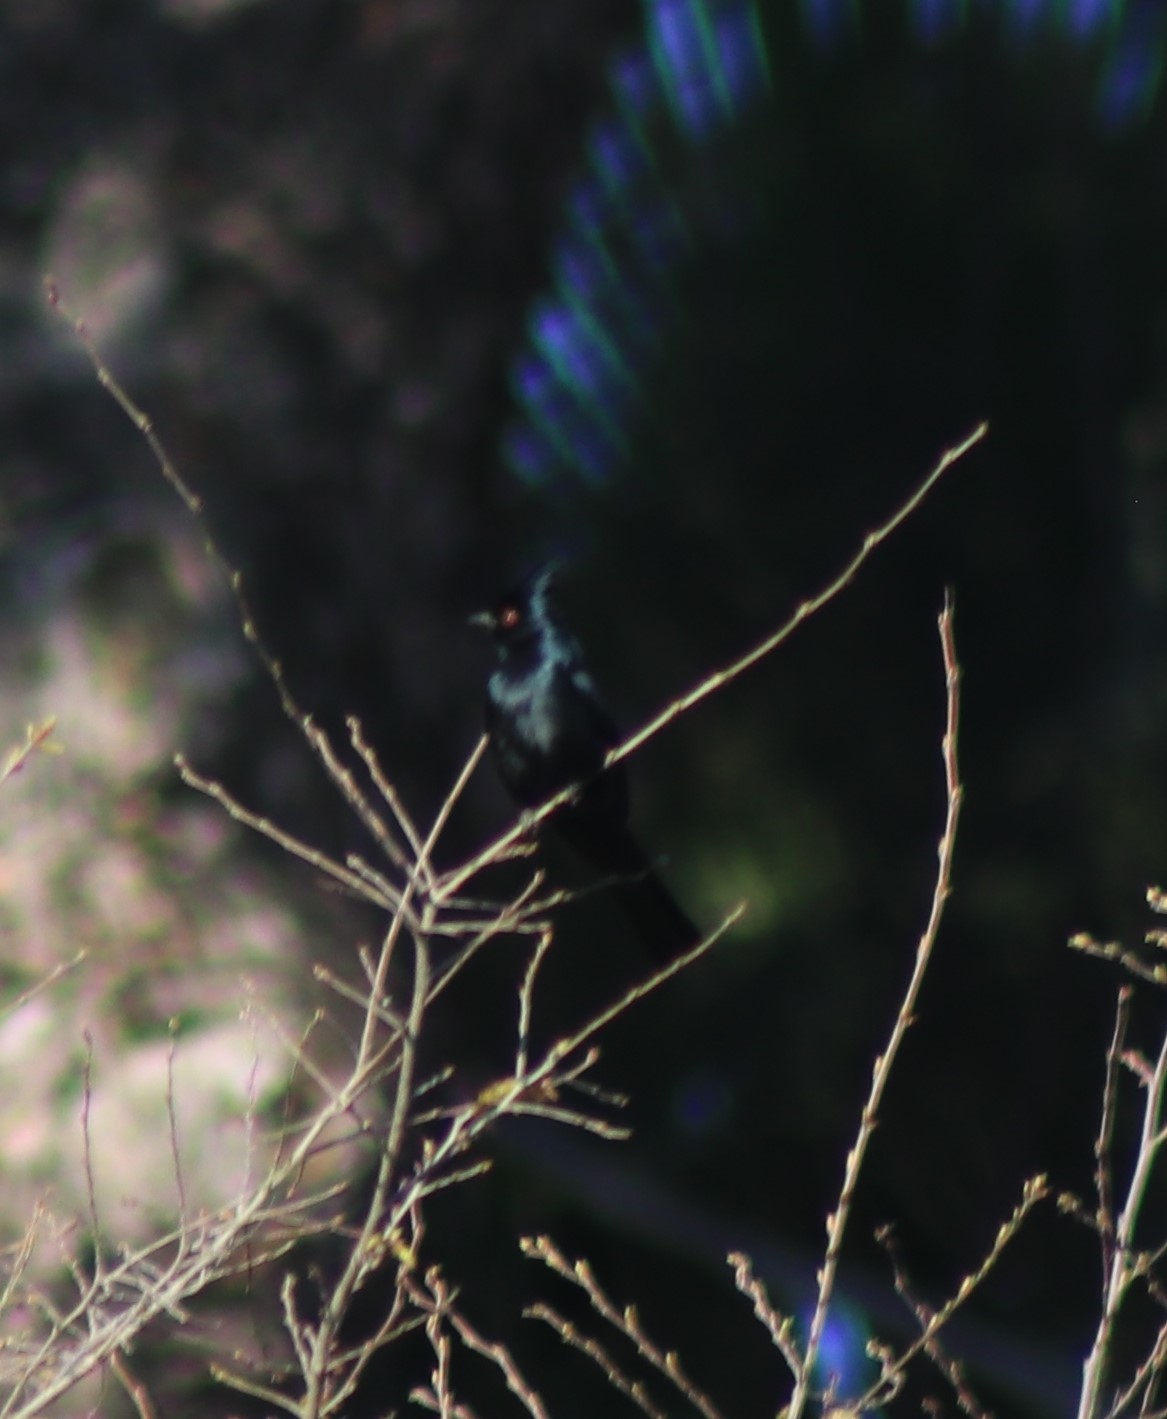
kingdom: Animalia
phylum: Chordata
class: Aves
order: Passeriformes
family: Ptilogonatidae
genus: Phainopepla
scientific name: Phainopepla nitens
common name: Phainopepla
